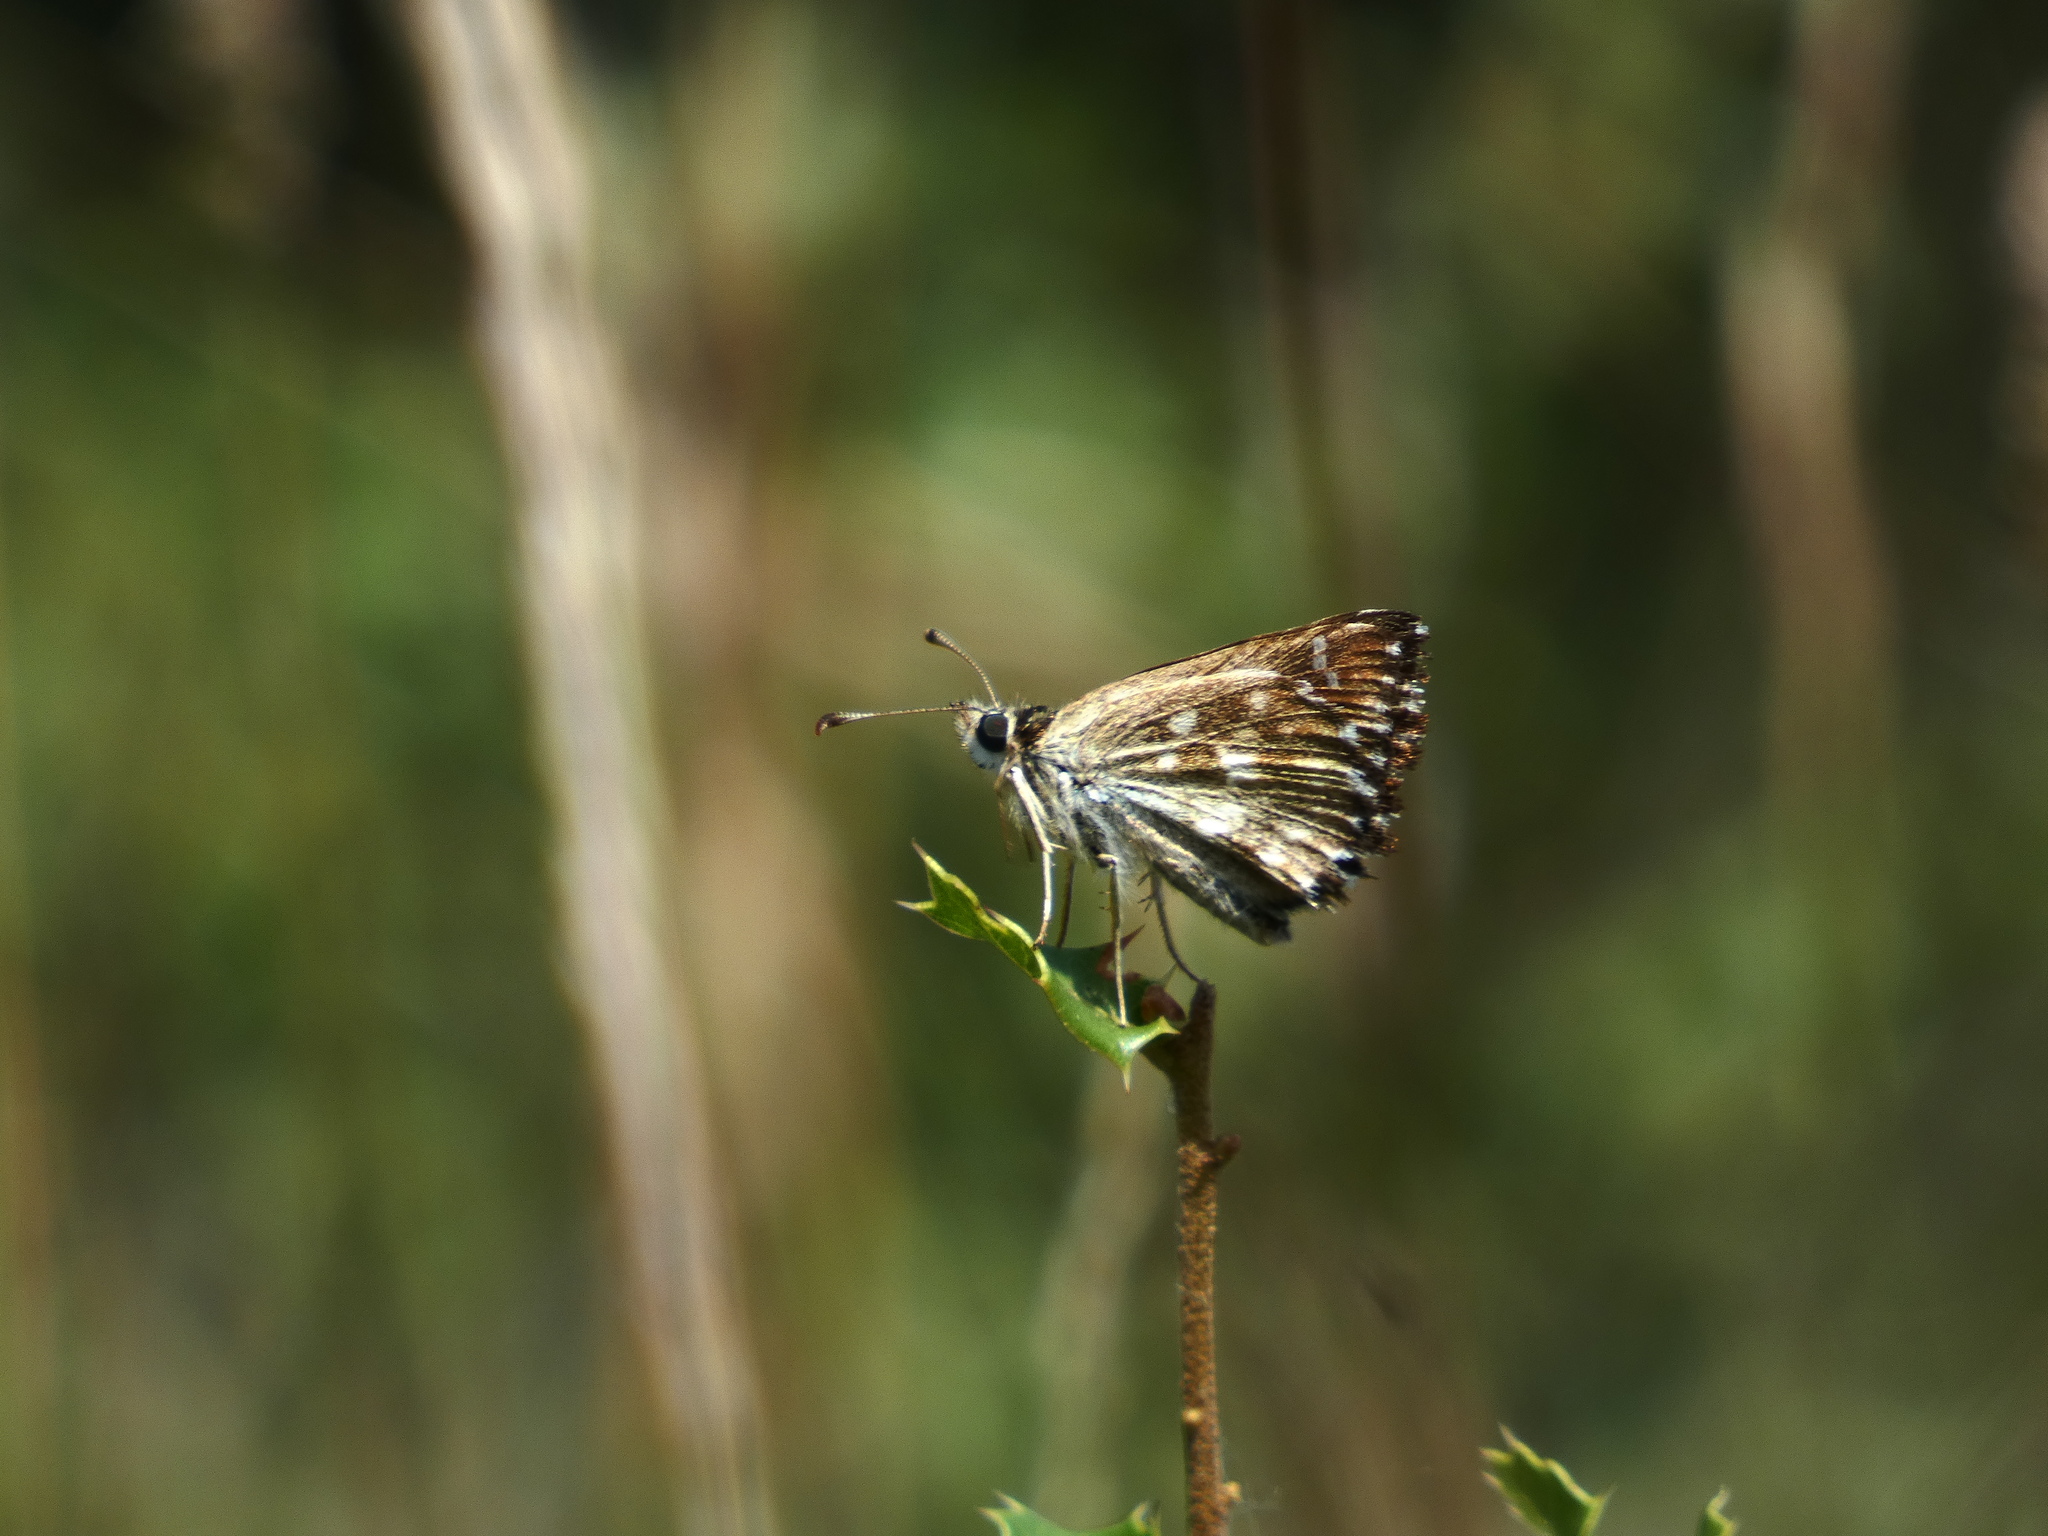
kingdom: Animalia
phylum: Arthropoda
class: Insecta
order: Lepidoptera
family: Hesperiidae
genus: Carcharodus
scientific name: Carcharodus alceae
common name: Mallow skipper
